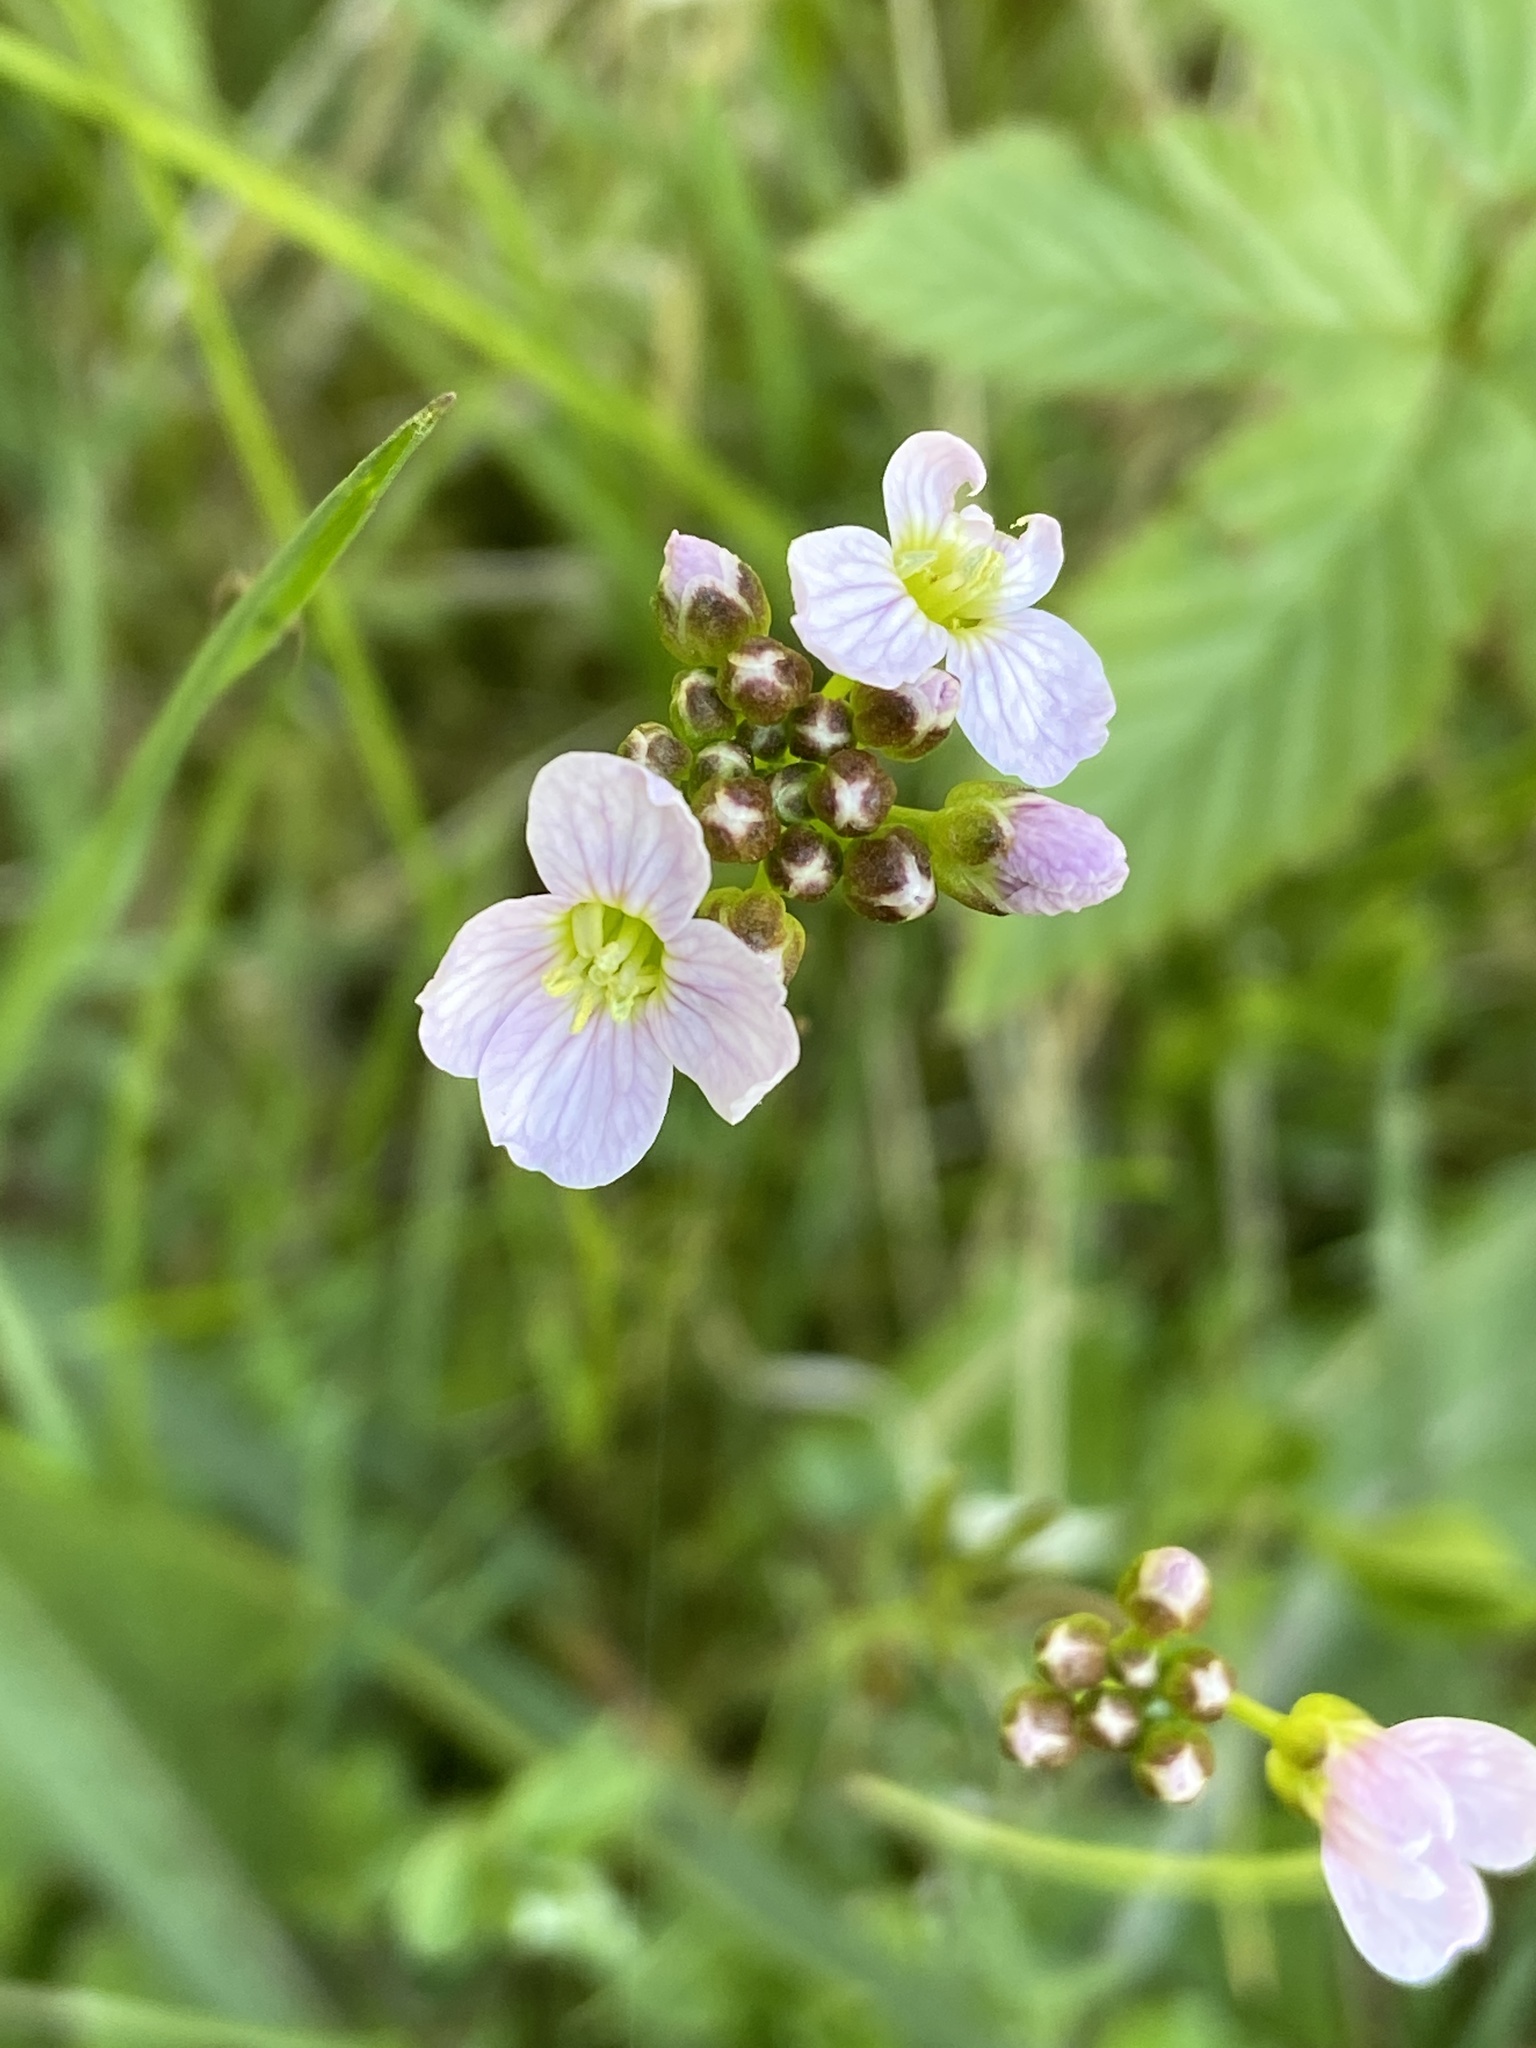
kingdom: Plantae
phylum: Tracheophyta
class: Magnoliopsida
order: Brassicales
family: Brassicaceae
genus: Cardamine
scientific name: Cardamine pratensis
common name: Cuckoo flower
